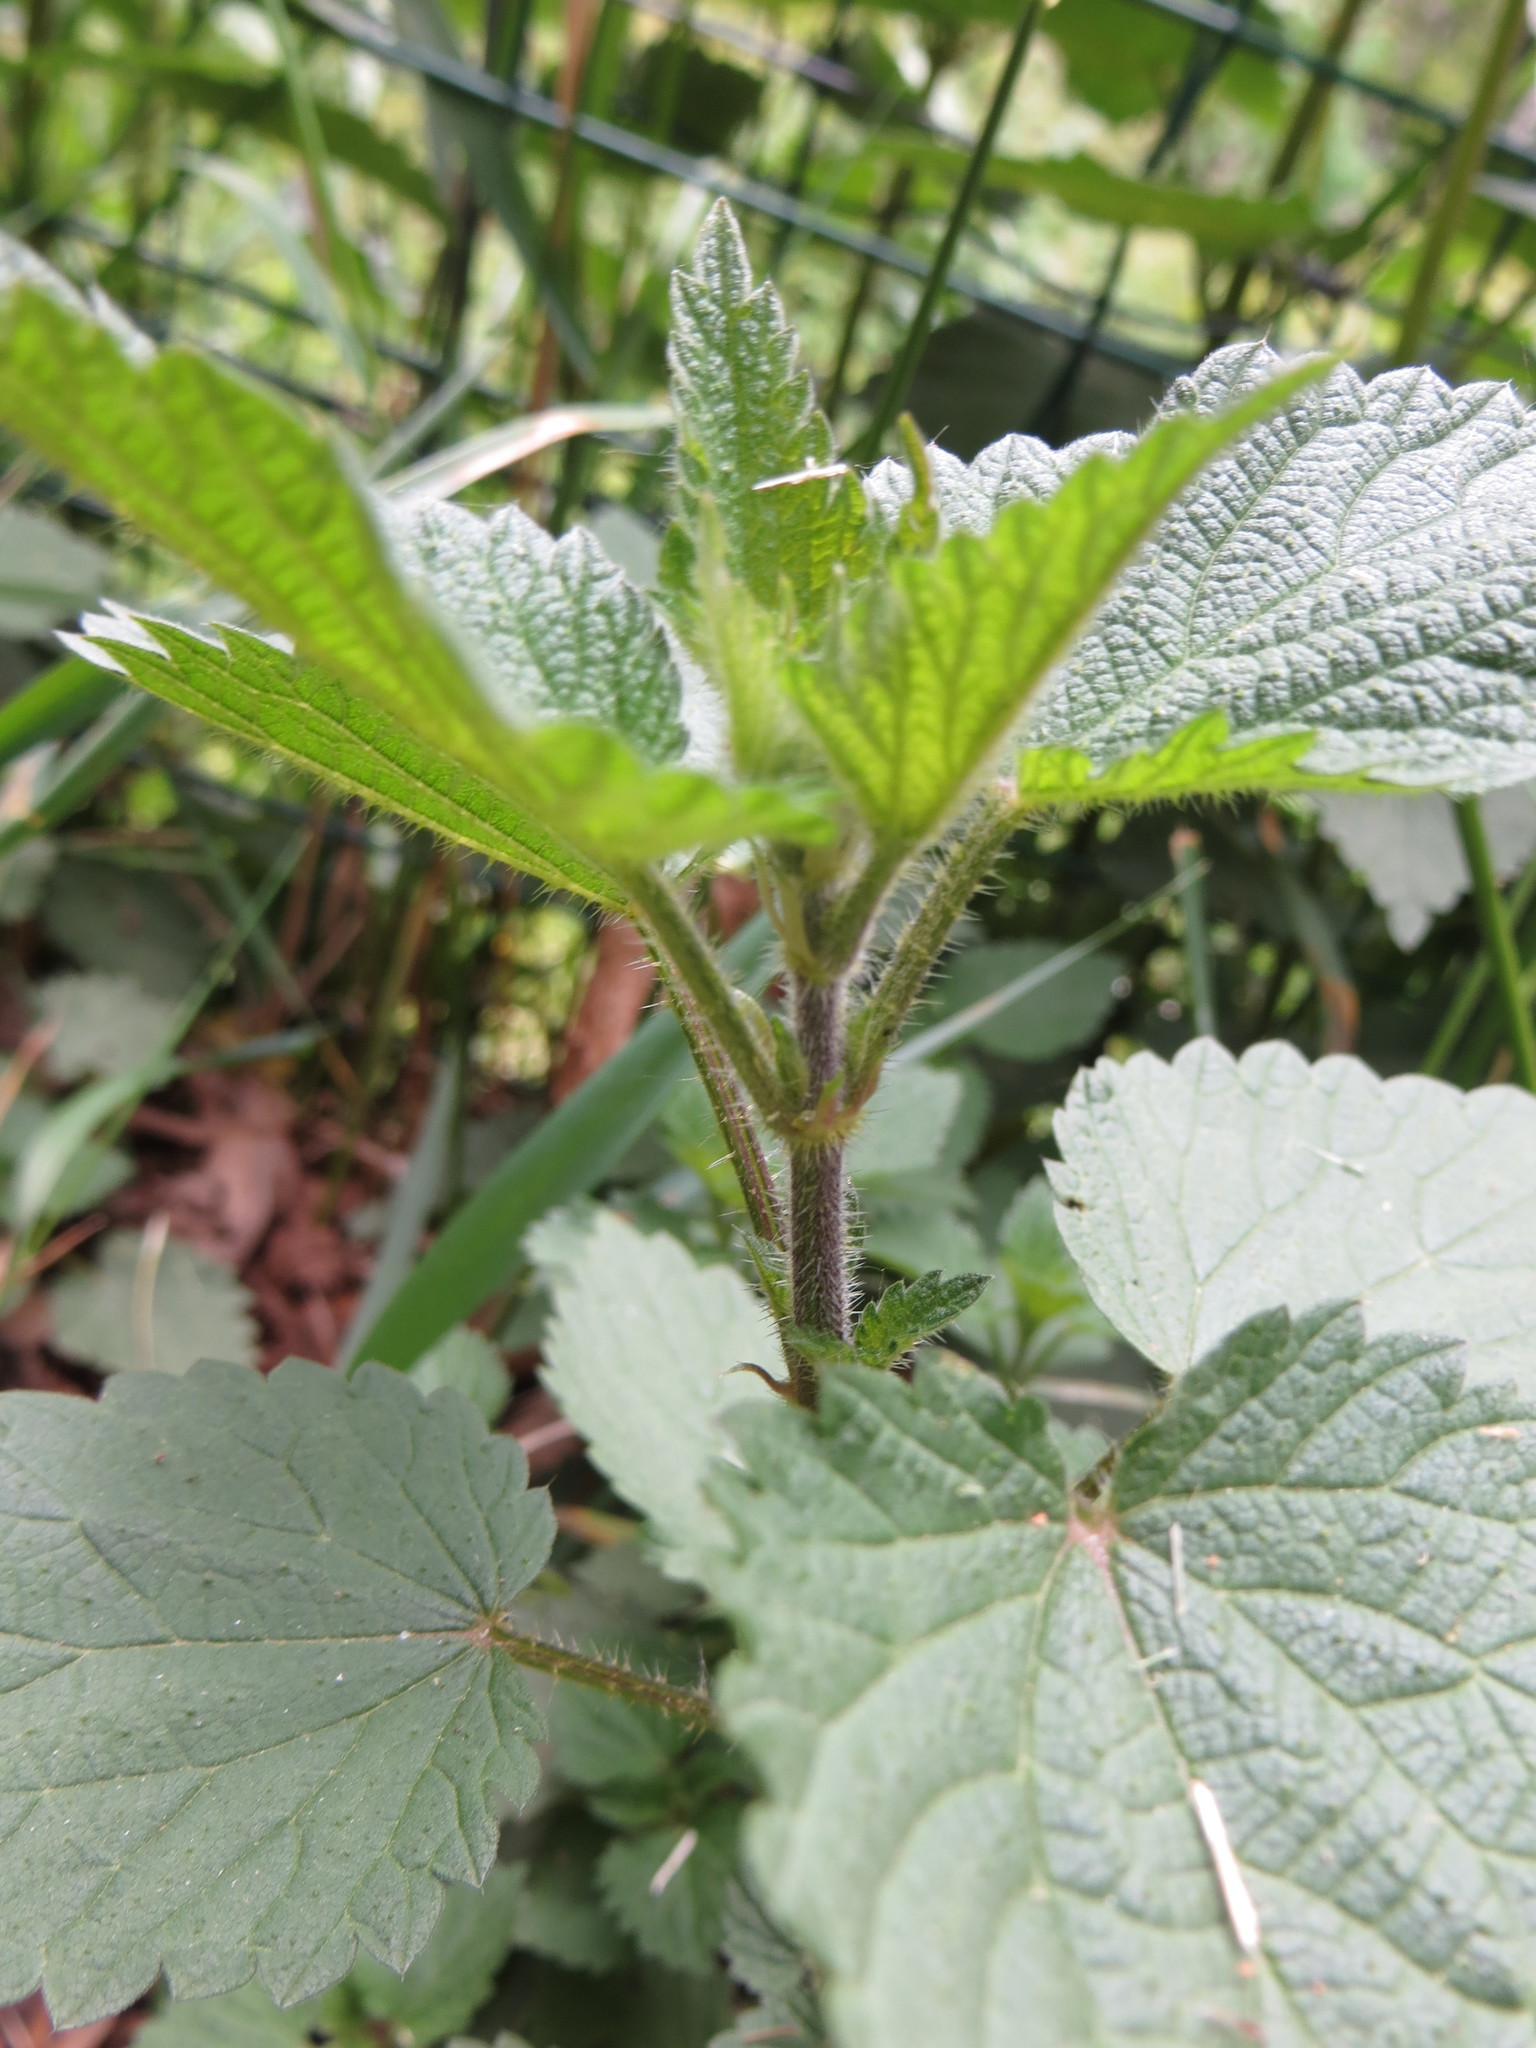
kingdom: Plantae
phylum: Tracheophyta
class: Magnoliopsida
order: Rosales
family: Urticaceae
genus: Urtica
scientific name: Urtica dioica
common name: Common nettle
